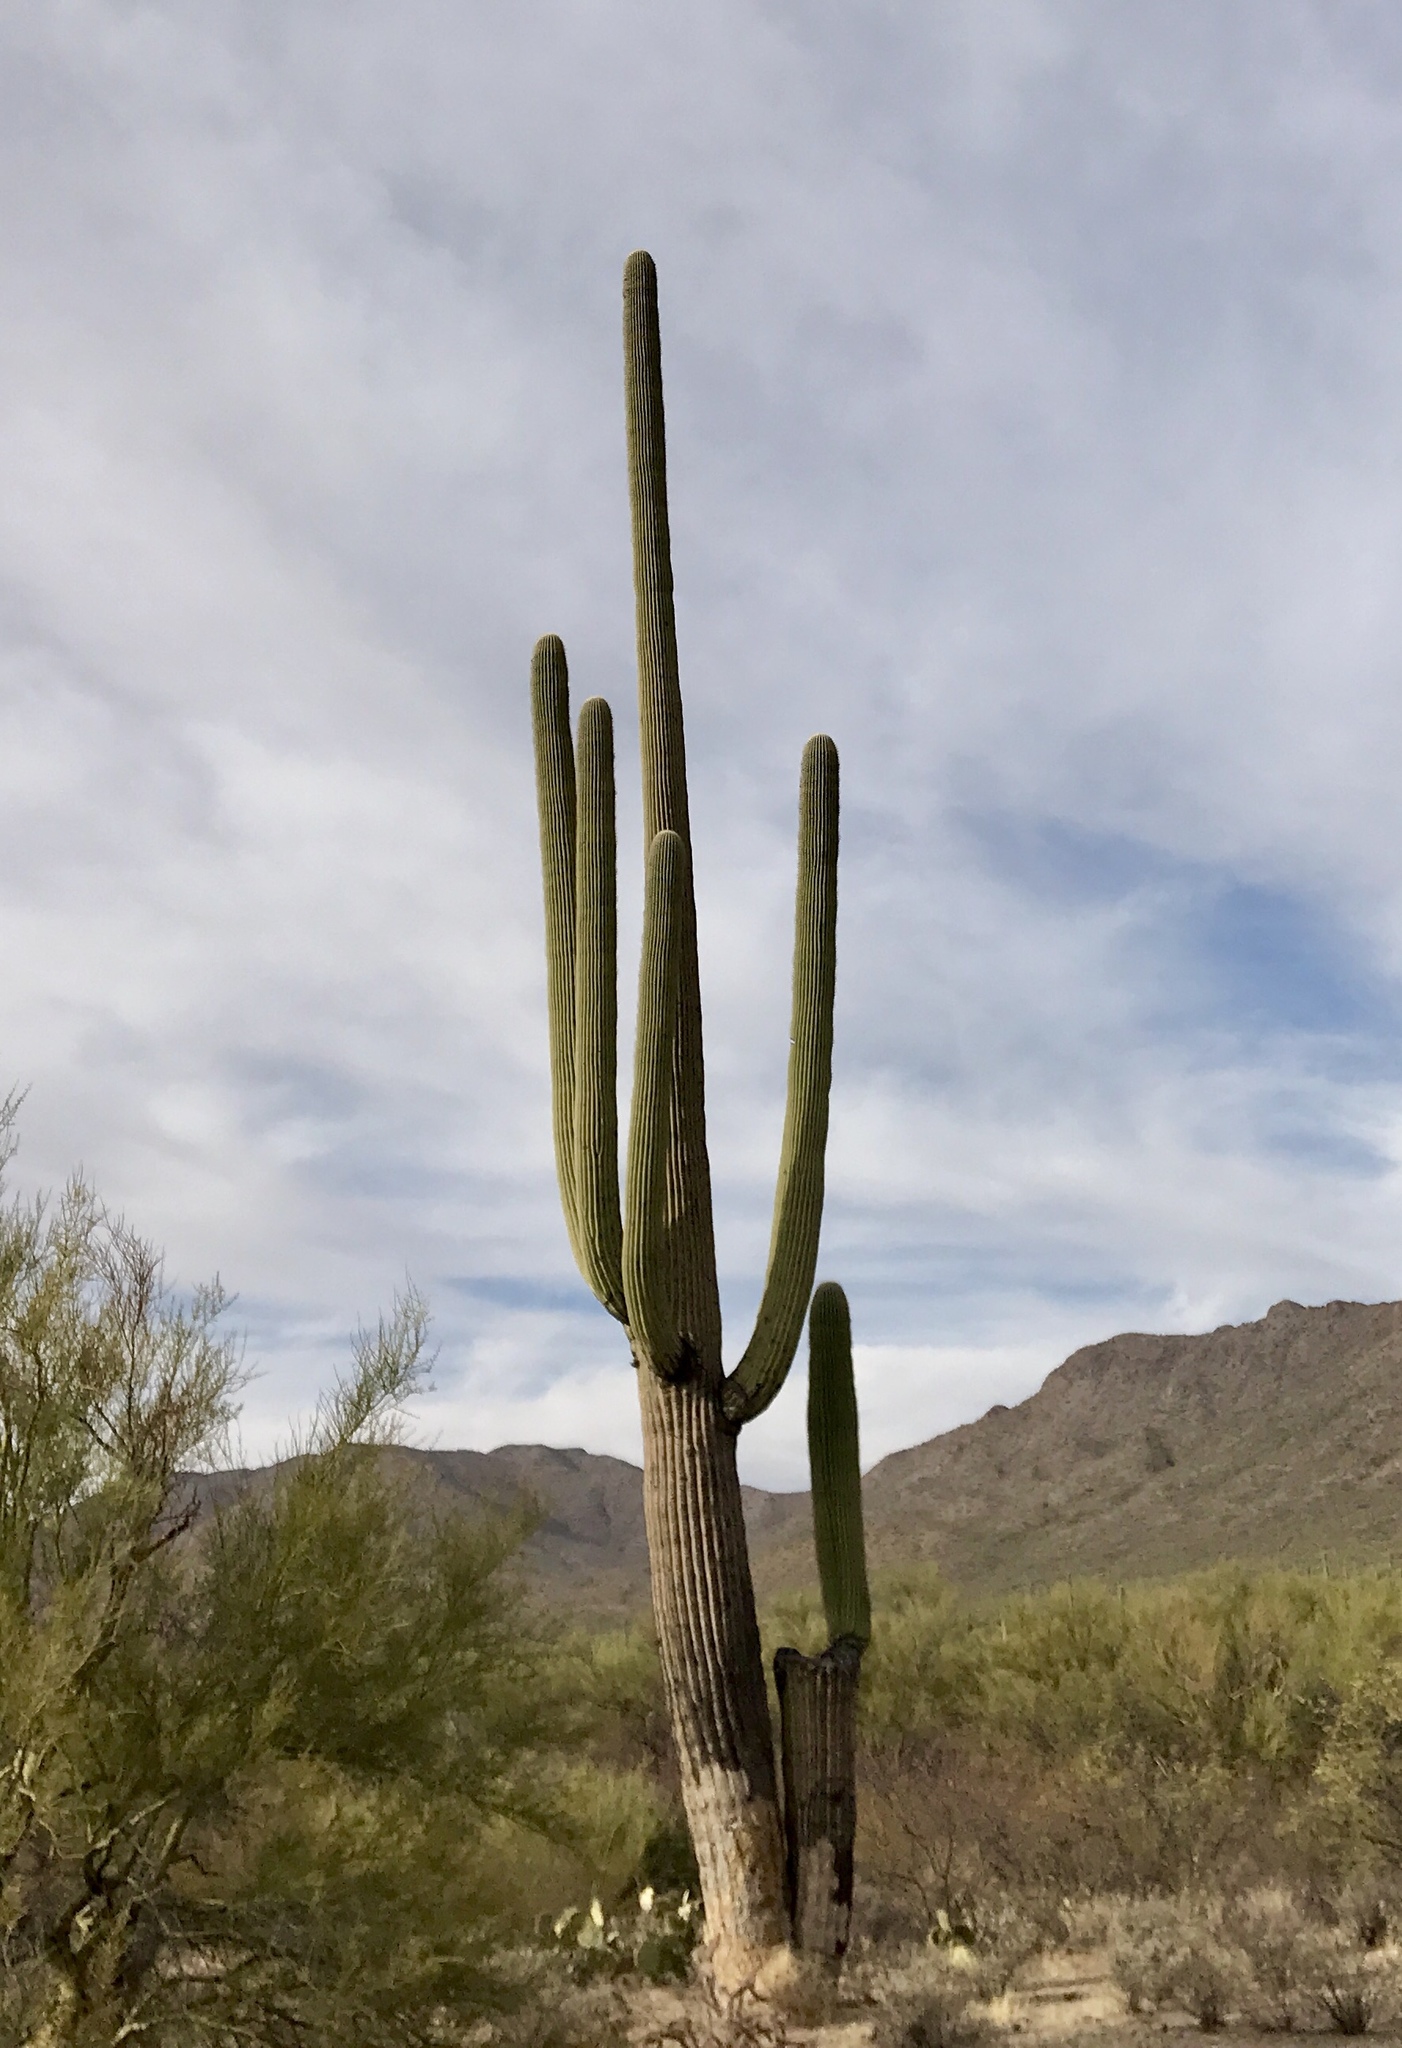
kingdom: Plantae
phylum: Tracheophyta
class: Magnoliopsida
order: Caryophyllales
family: Cactaceae
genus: Carnegiea
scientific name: Carnegiea gigantea
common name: Saguaro
